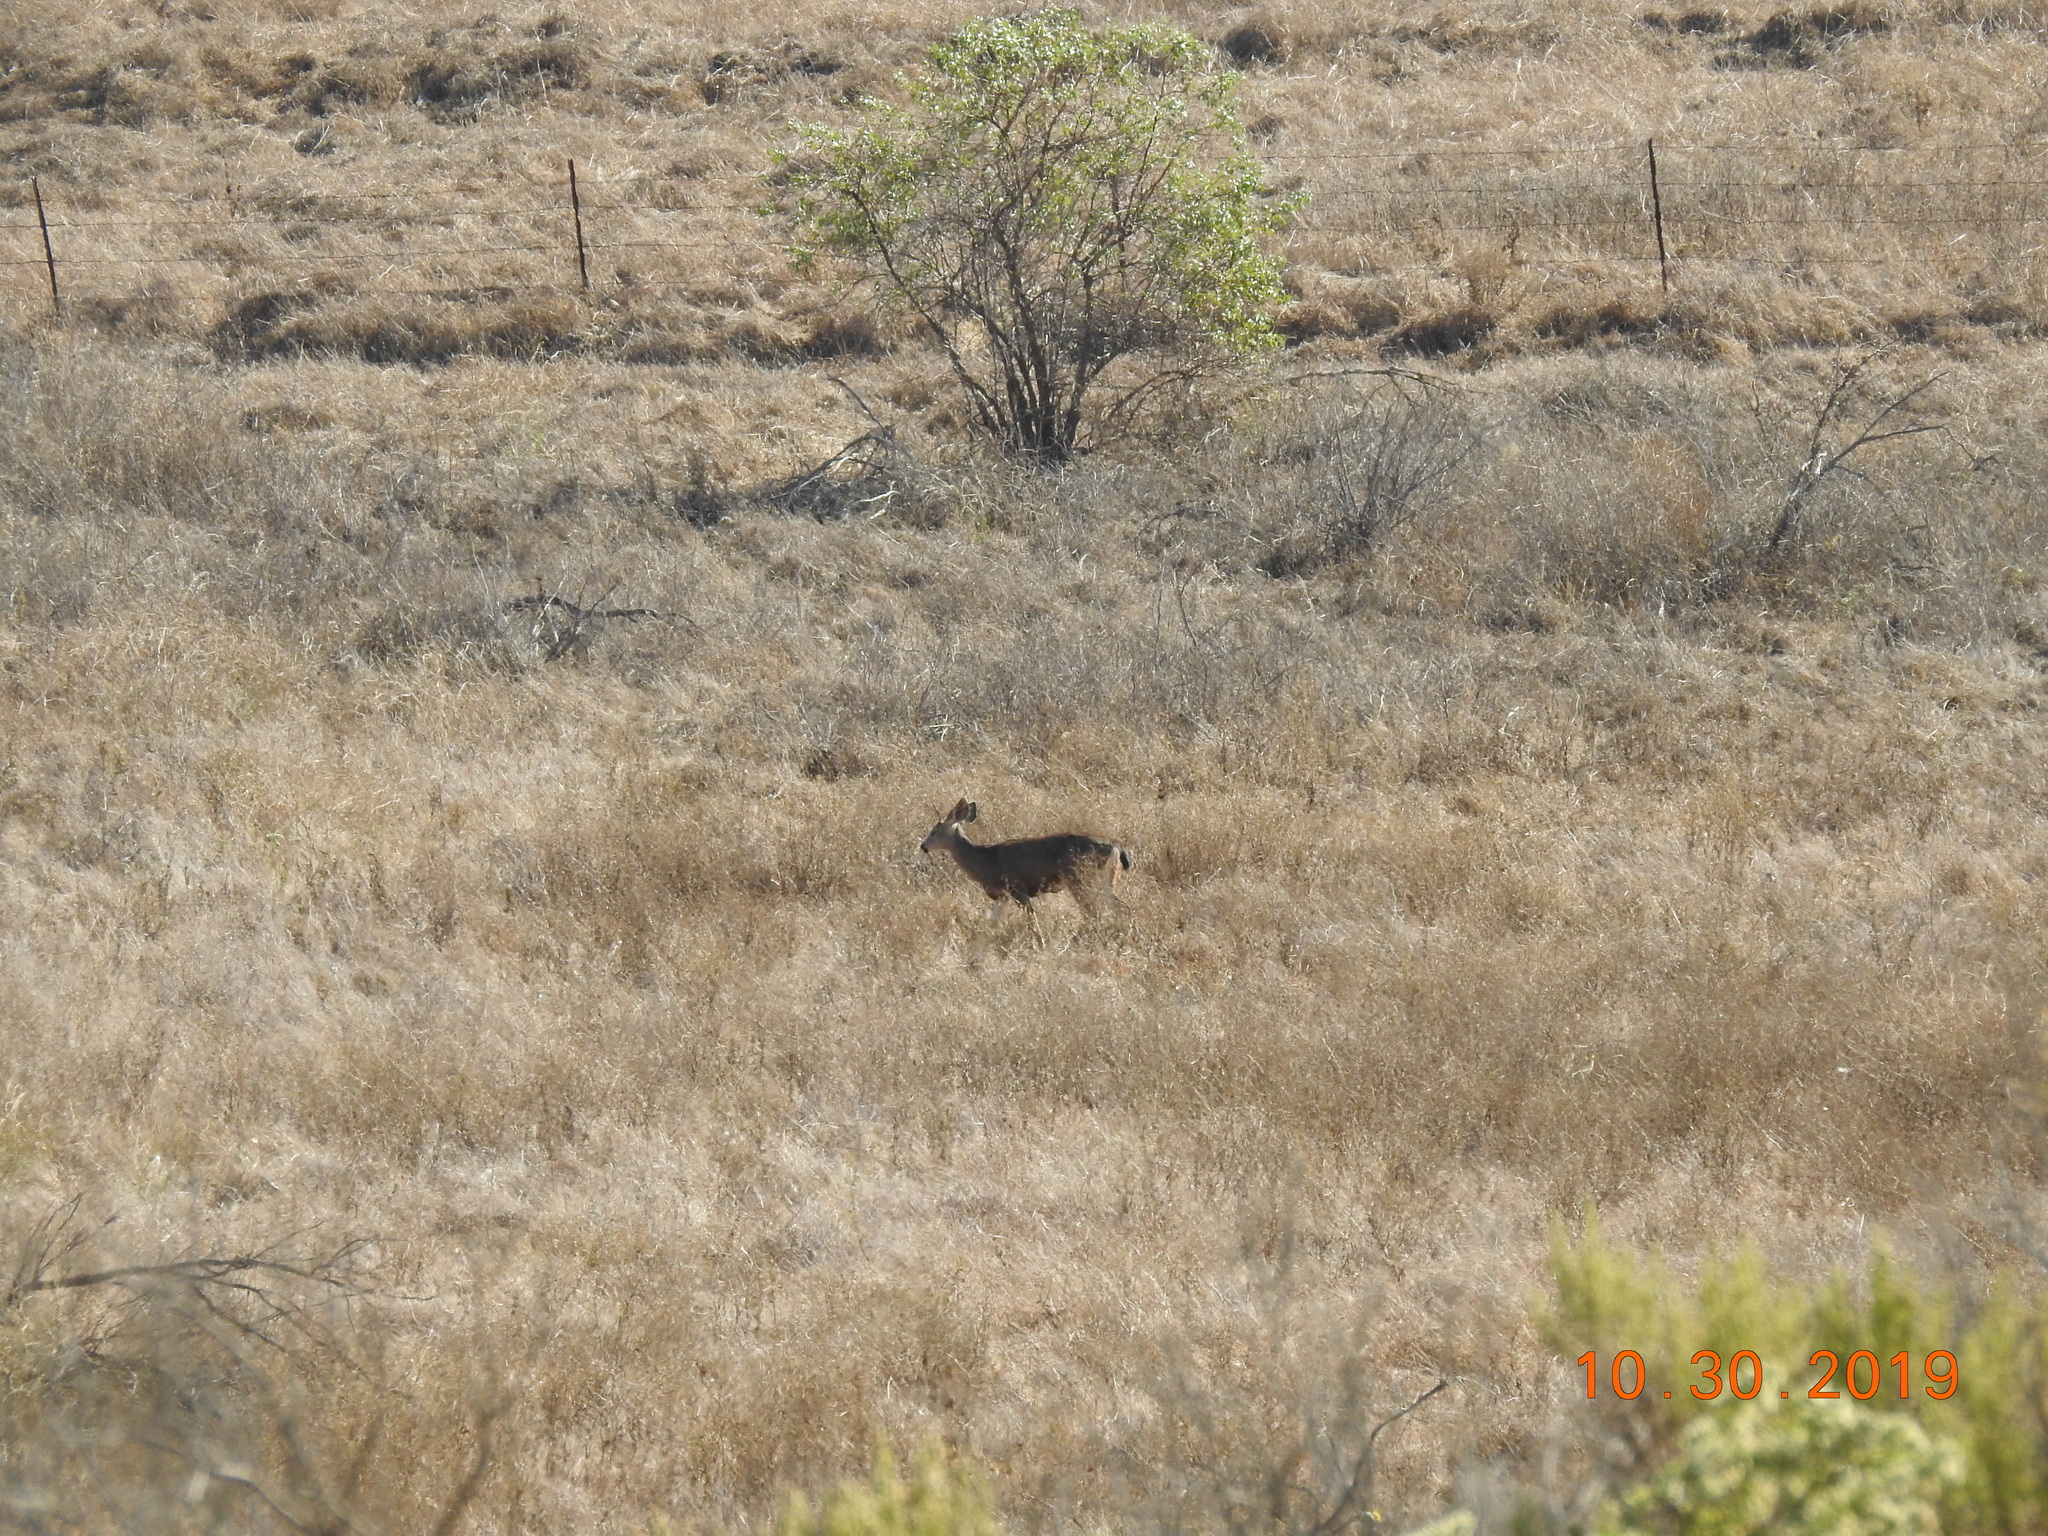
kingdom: Animalia
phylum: Chordata
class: Mammalia
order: Artiodactyla
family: Cervidae
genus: Odocoileus
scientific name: Odocoileus hemionus
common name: Mule deer
